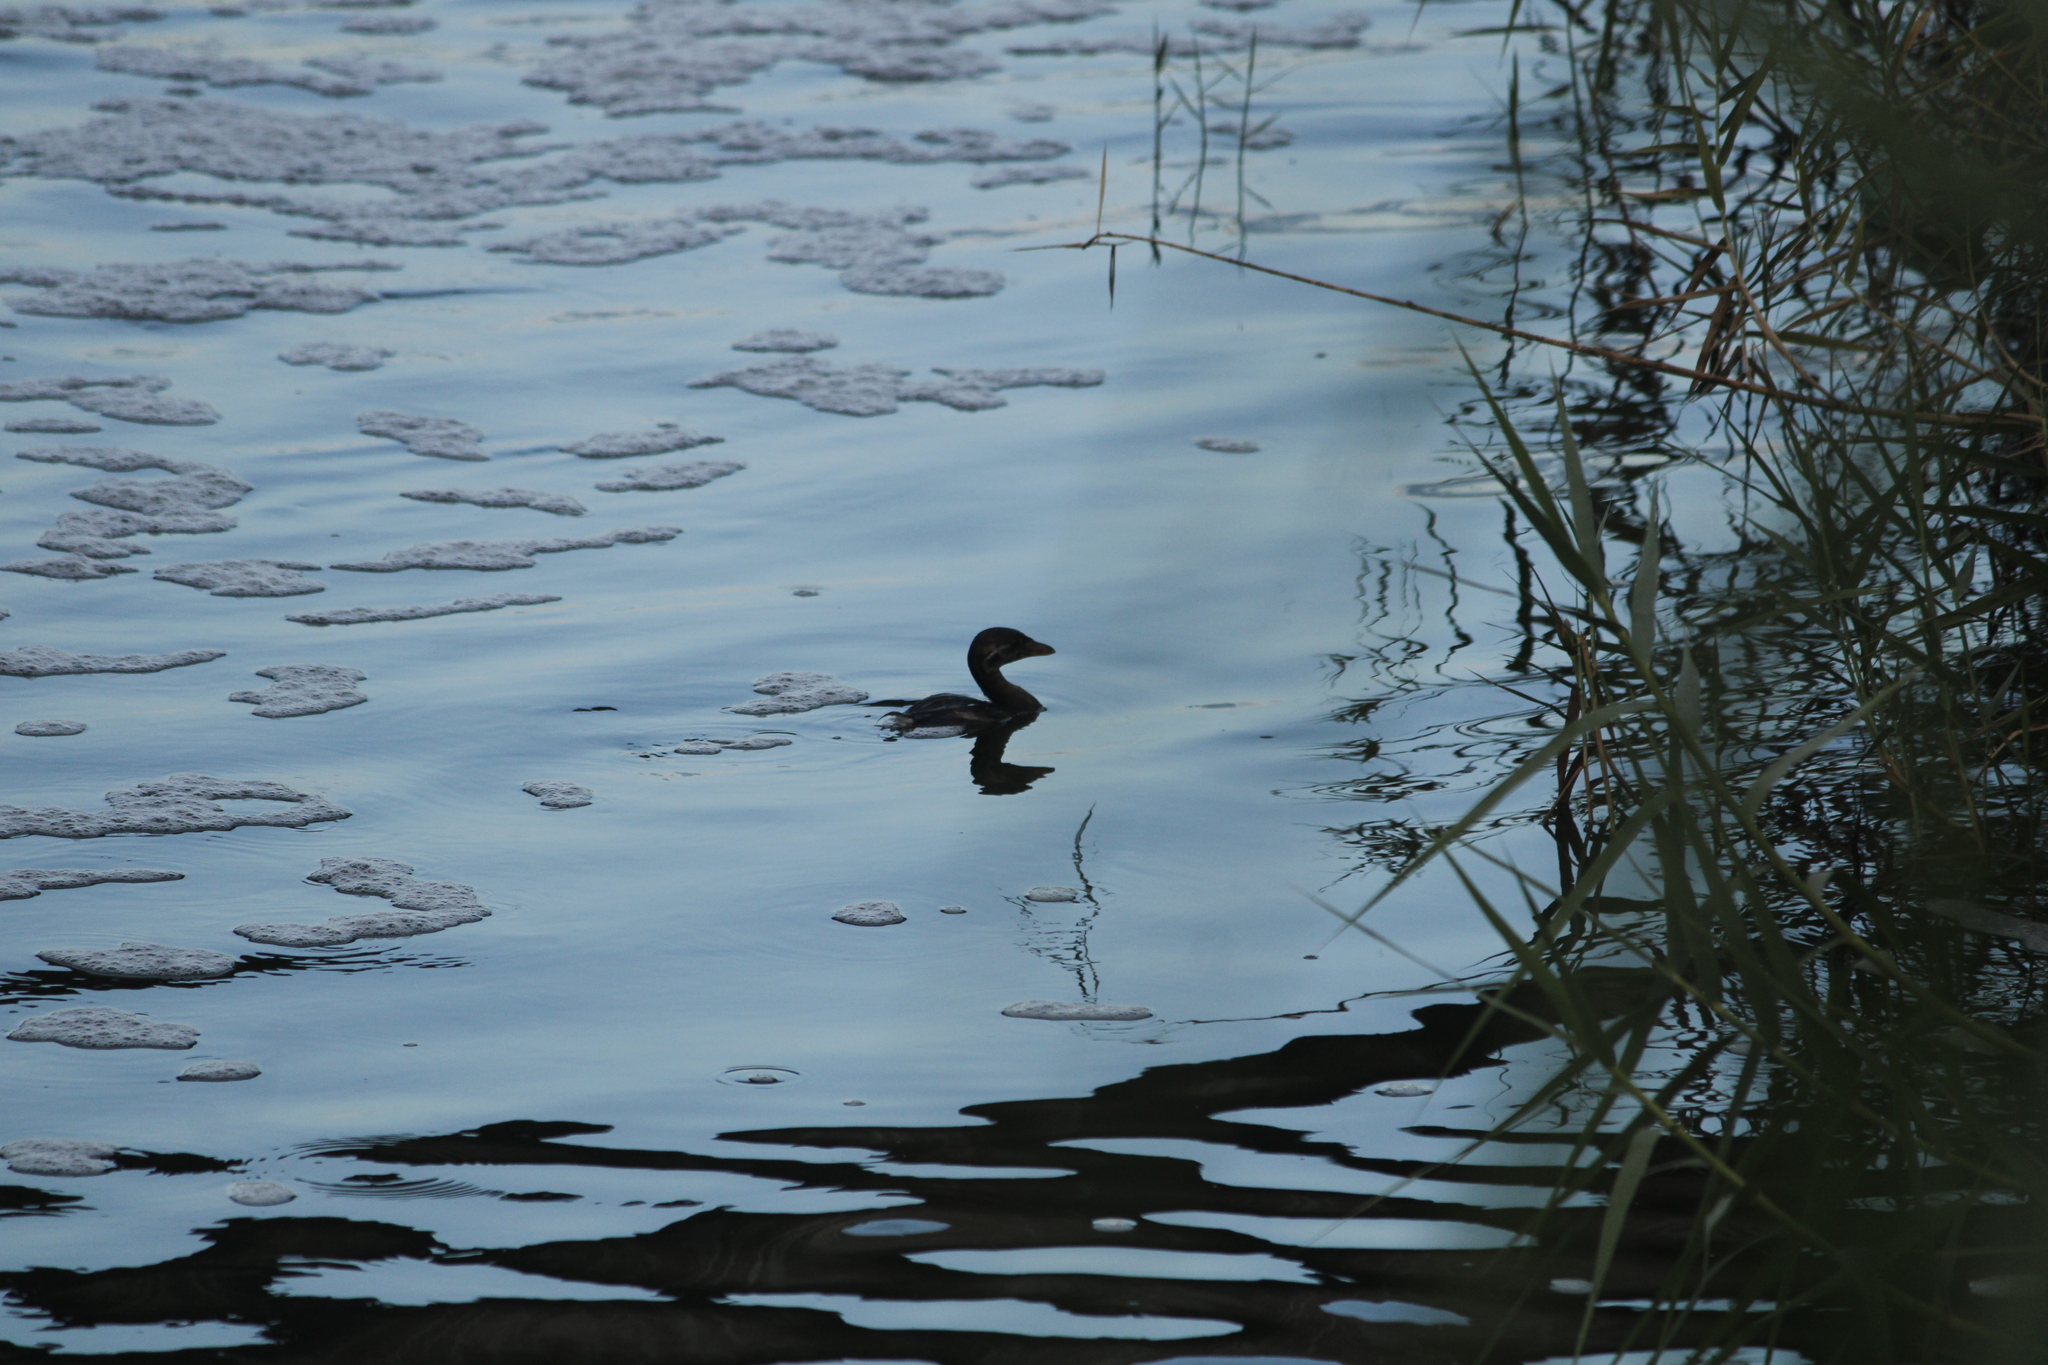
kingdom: Animalia
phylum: Chordata
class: Aves
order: Podicipediformes
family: Podicipedidae
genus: Podilymbus
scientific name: Podilymbus podiceps
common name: Pied-billed grebe
